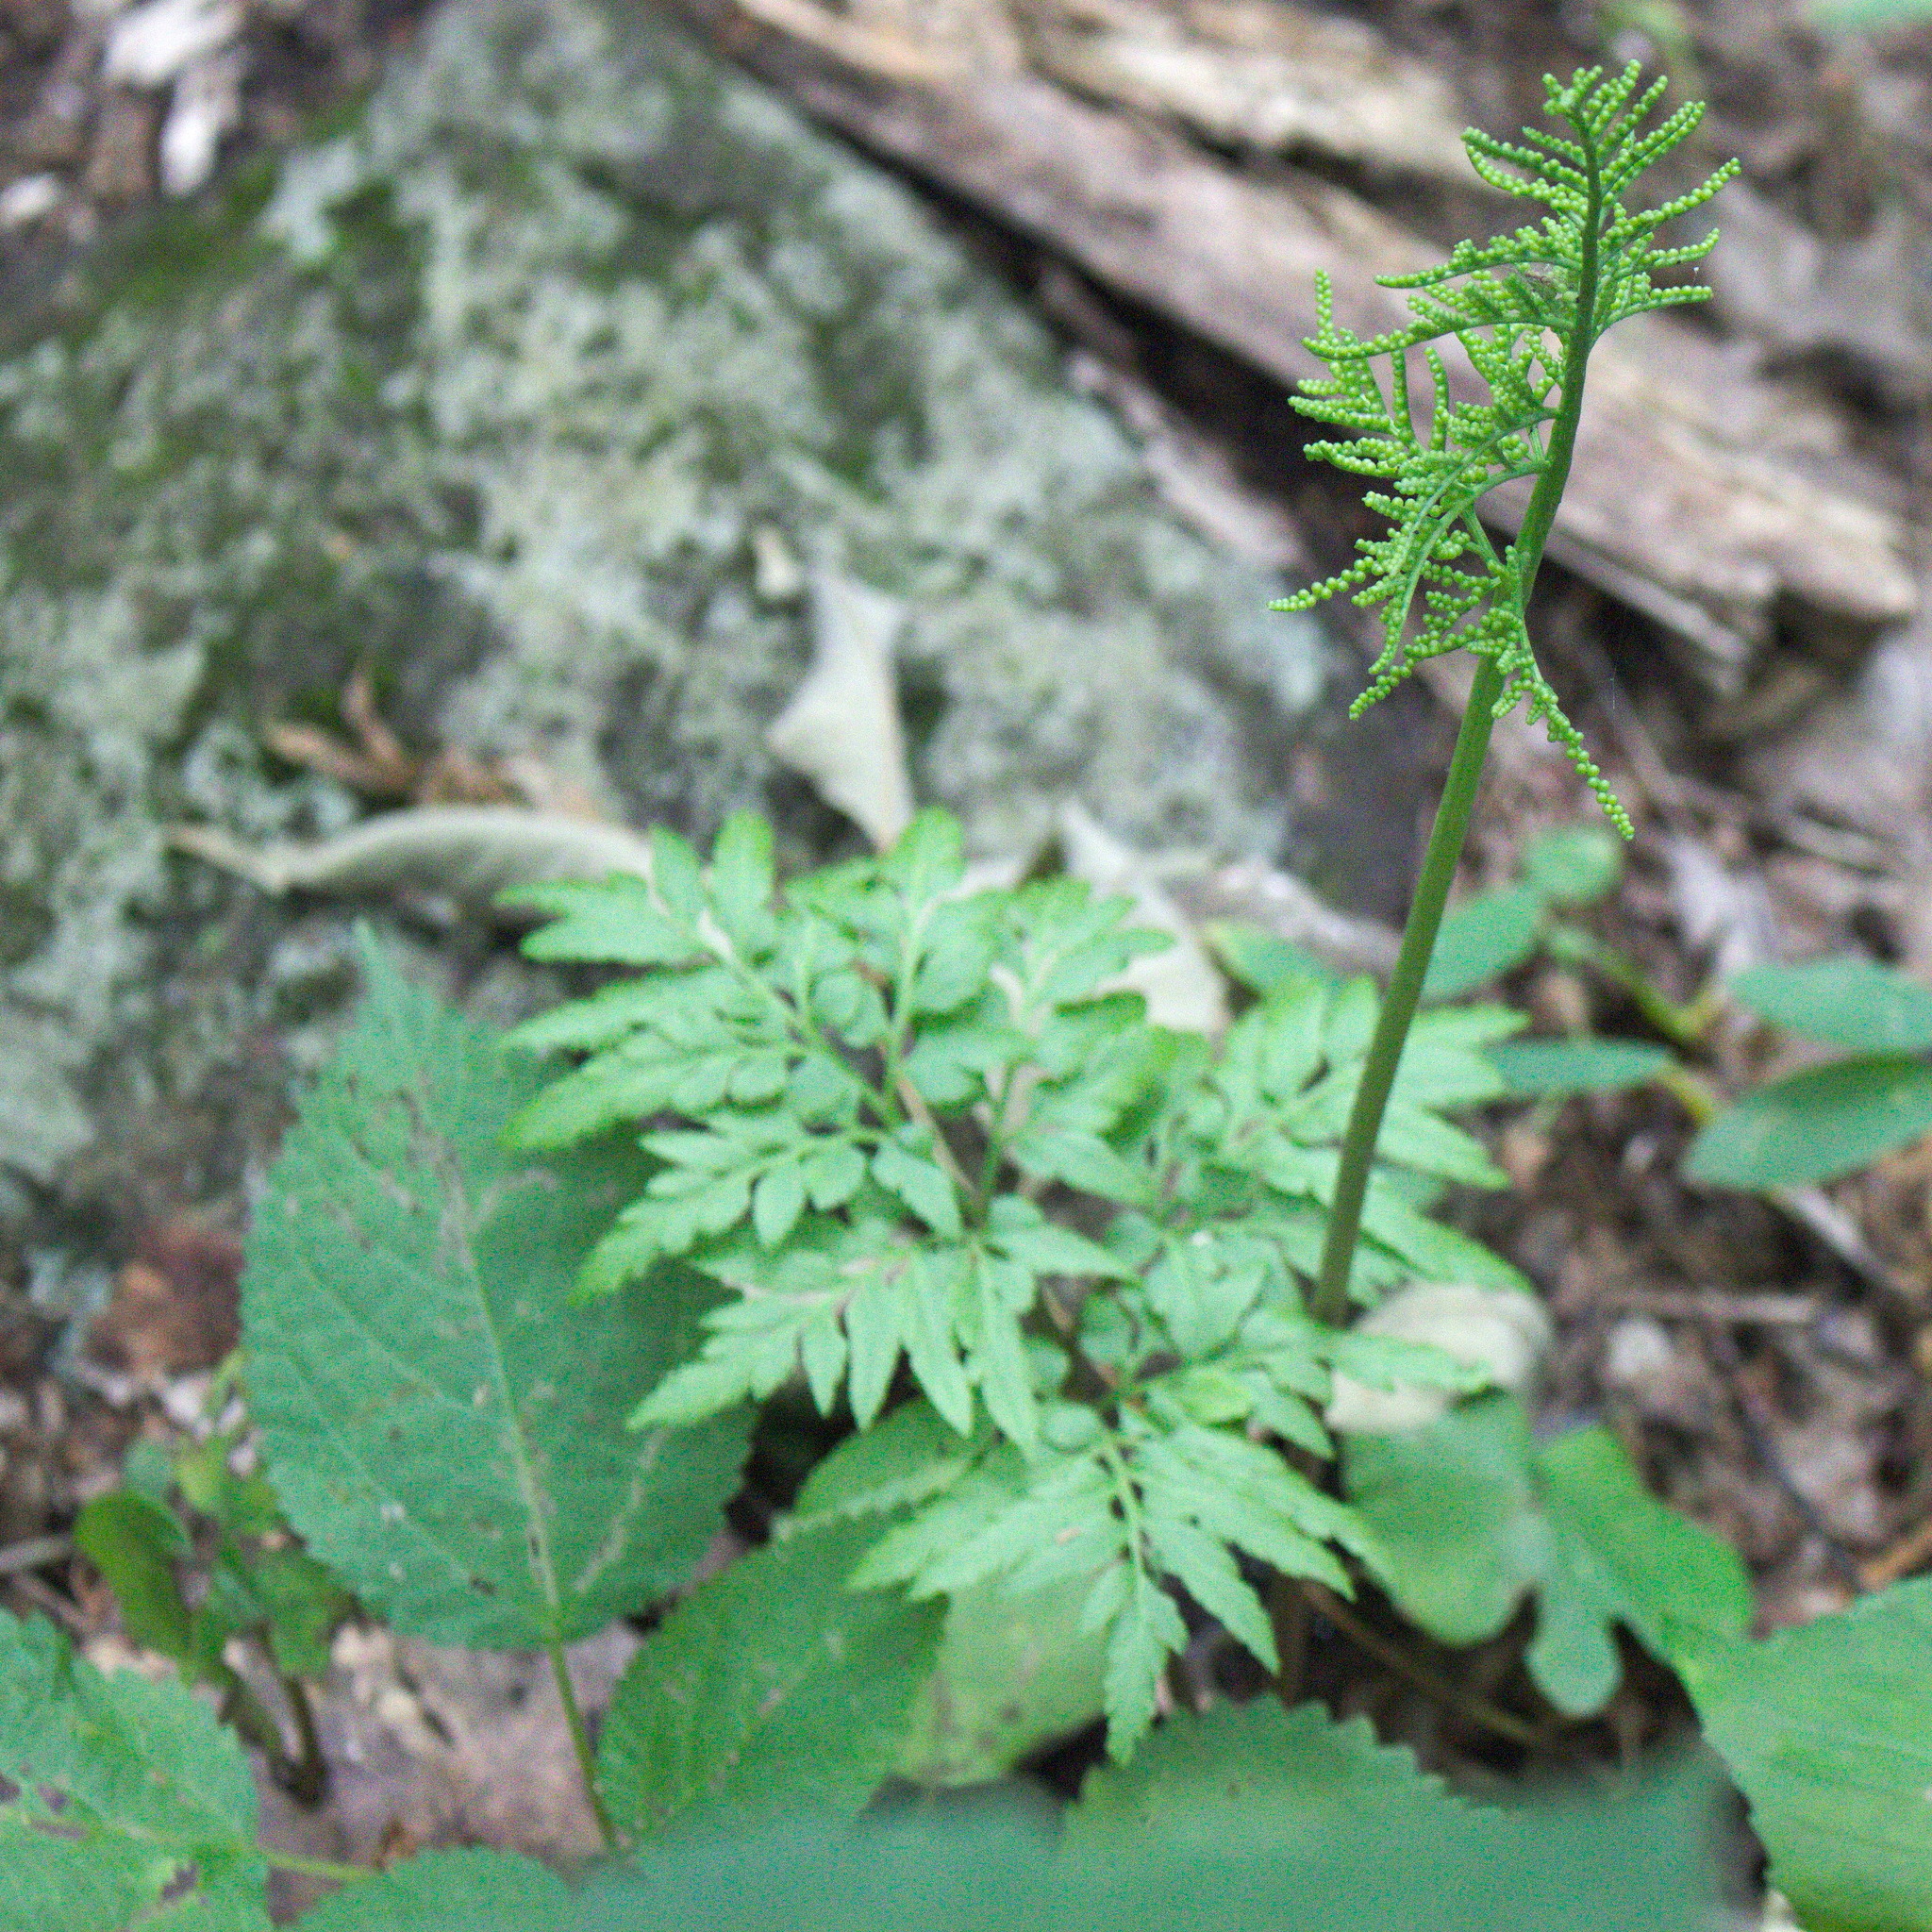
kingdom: Plantae
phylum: Tracheophyta
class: Polypodiopsida
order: Ophioglossales
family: Ophioglossaceae
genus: Sceptridium
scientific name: Sceptridium dissectum
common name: Cut-leaved grapefern
